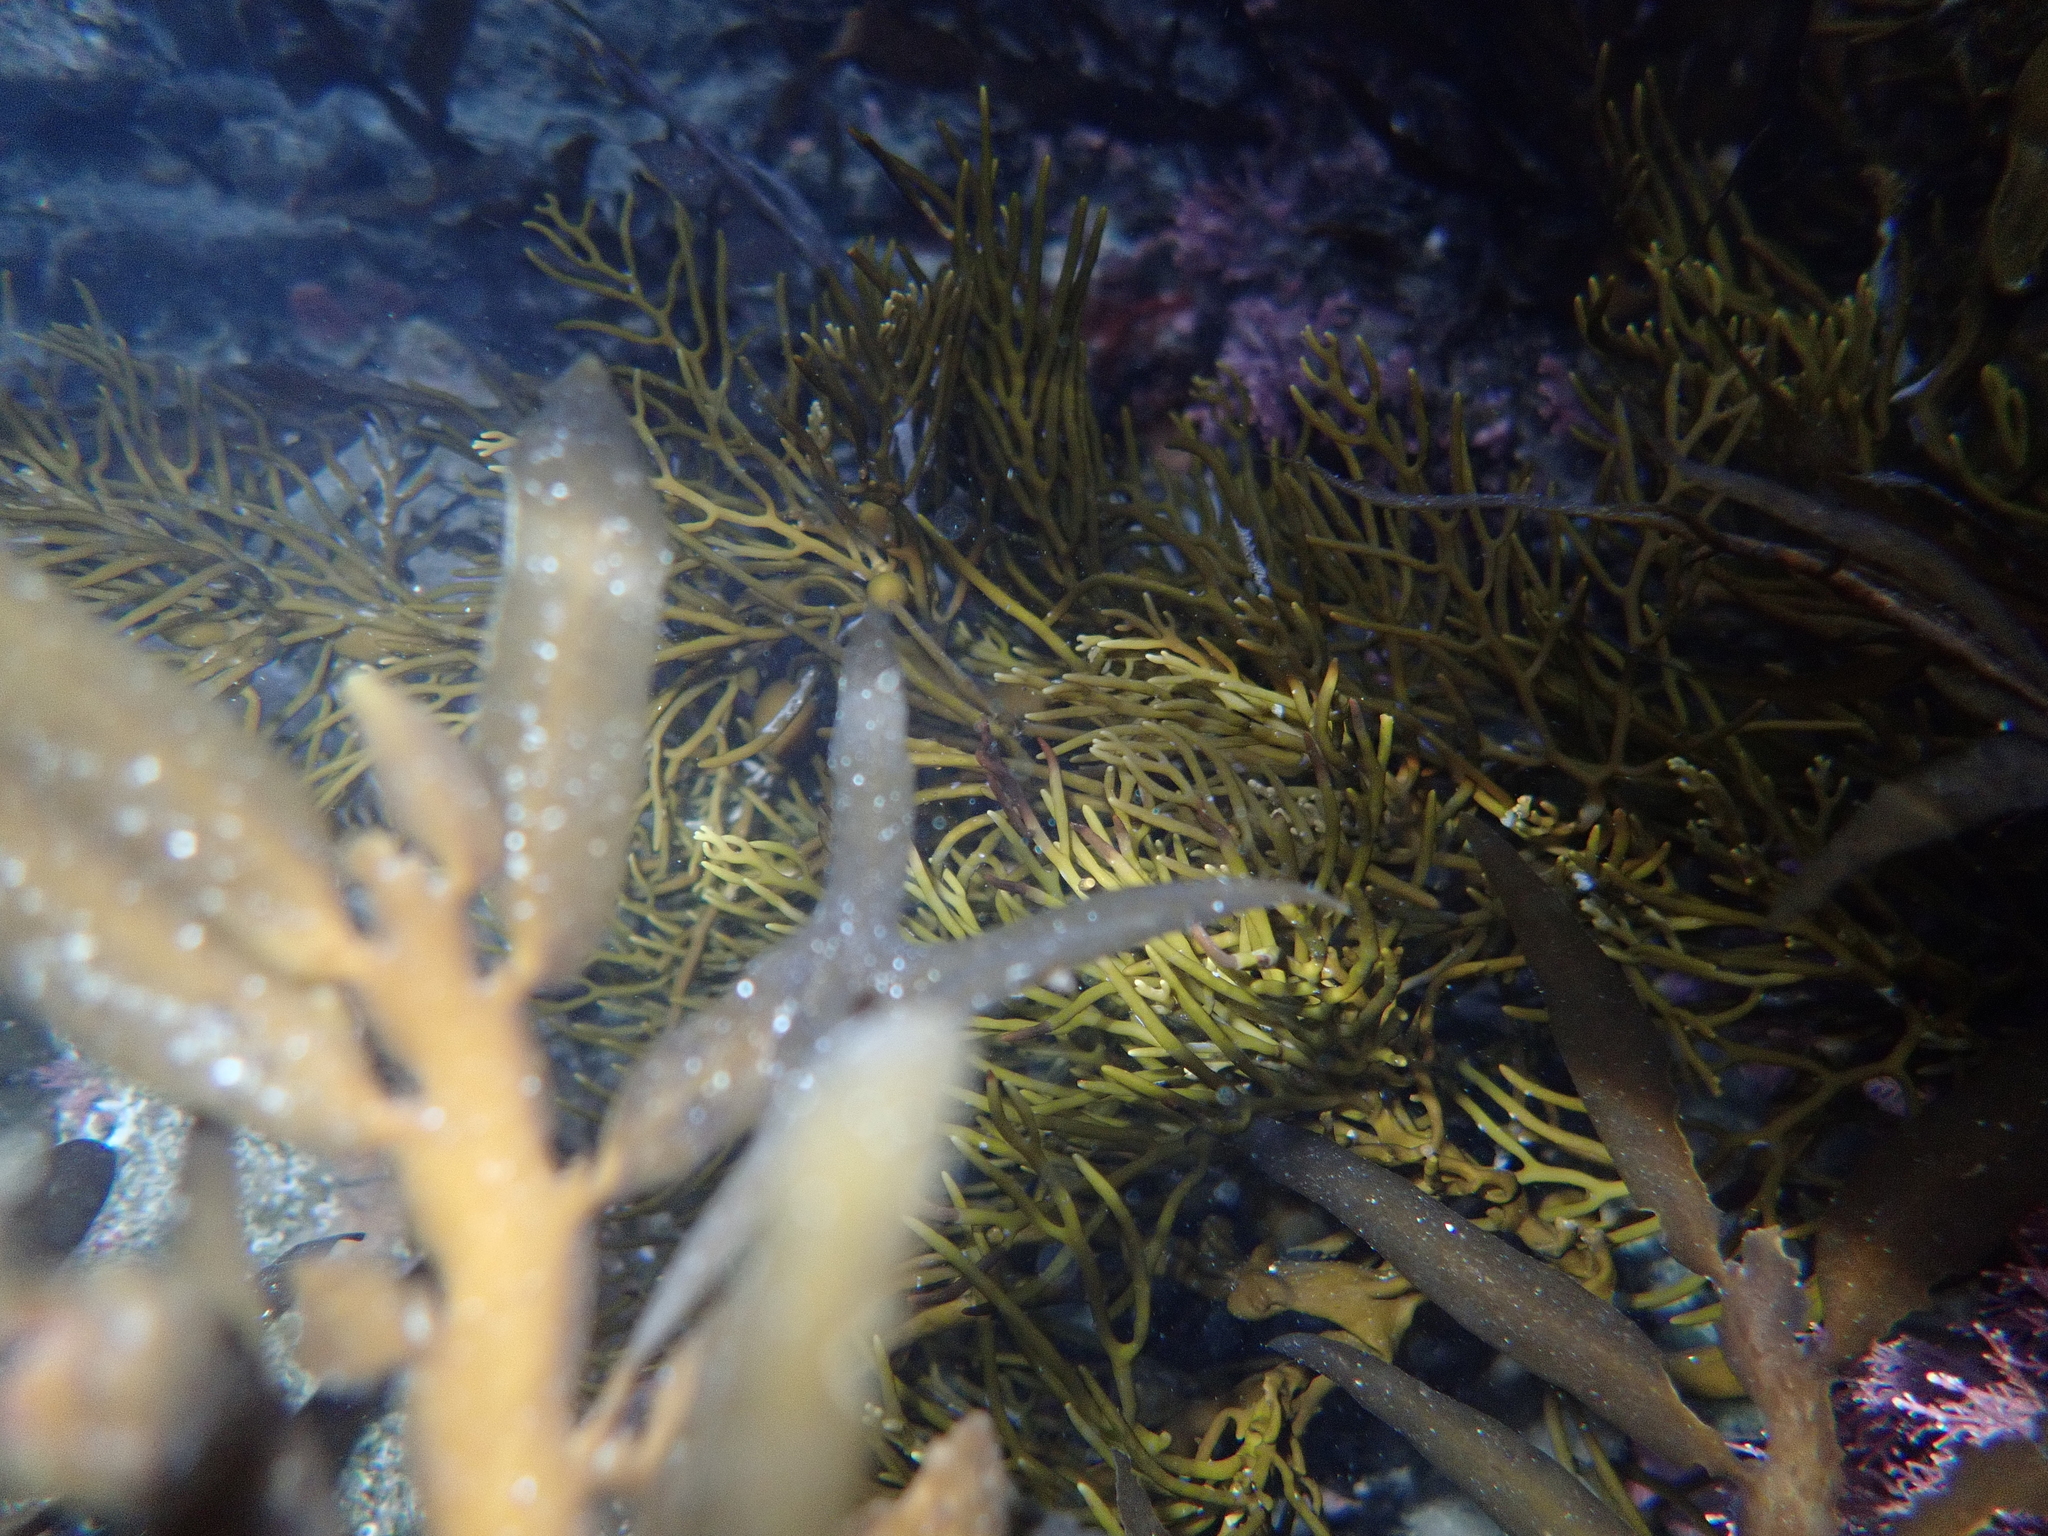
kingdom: Chromista
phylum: Ochrophyta
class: Phaeophyceae
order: Fucales
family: Sargassaceae
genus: Cystophora
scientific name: Cystophora retroflexa
